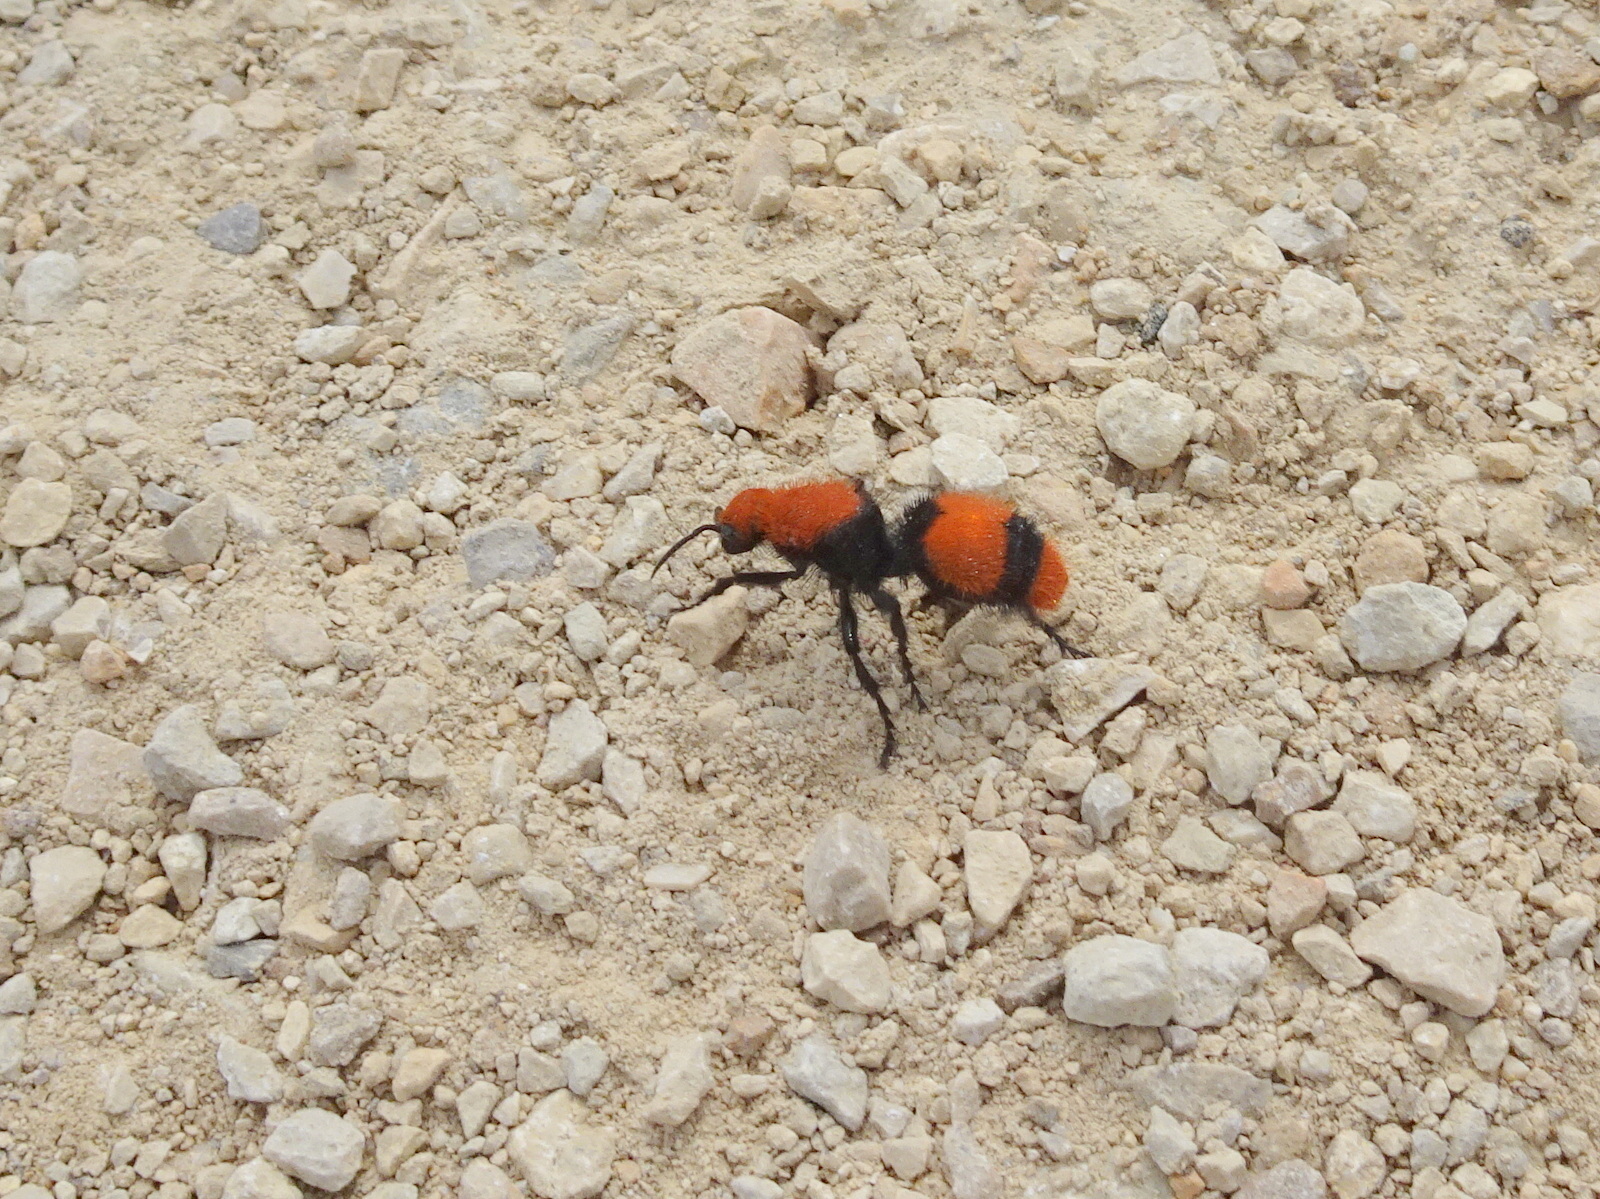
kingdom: Animalia
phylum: Arthropoda
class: Insecta
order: Hymenoptera
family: Mutillidae
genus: Dasymutilla
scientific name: Dasymutilla occidentalis
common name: Common eastern velvet ant
